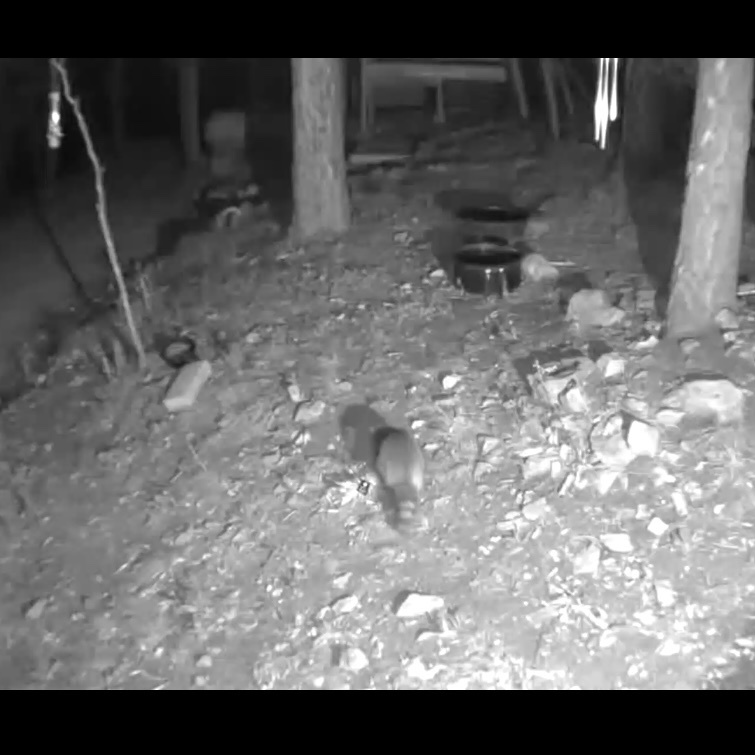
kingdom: Animalia
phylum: Chordata
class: Mammalia
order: Carnivora
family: Procyonidae
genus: Procyon
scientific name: Procyon lotor
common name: Raccoon
